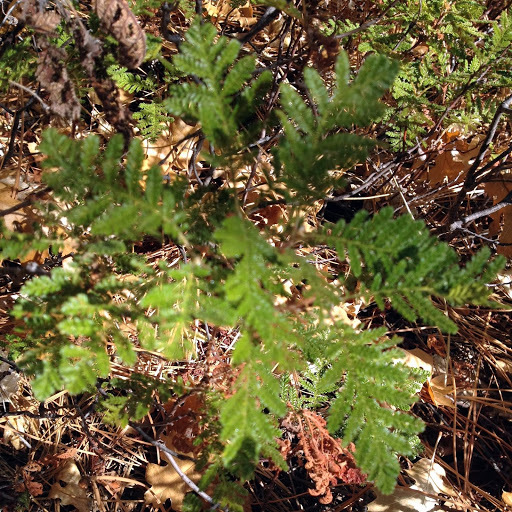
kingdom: Plantae
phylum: Tracheophyta
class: Magnoliopsida
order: Rosales
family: Rosaceae
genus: Chamaebatia
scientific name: Chamaebatia foliolosa
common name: Mountain misery
